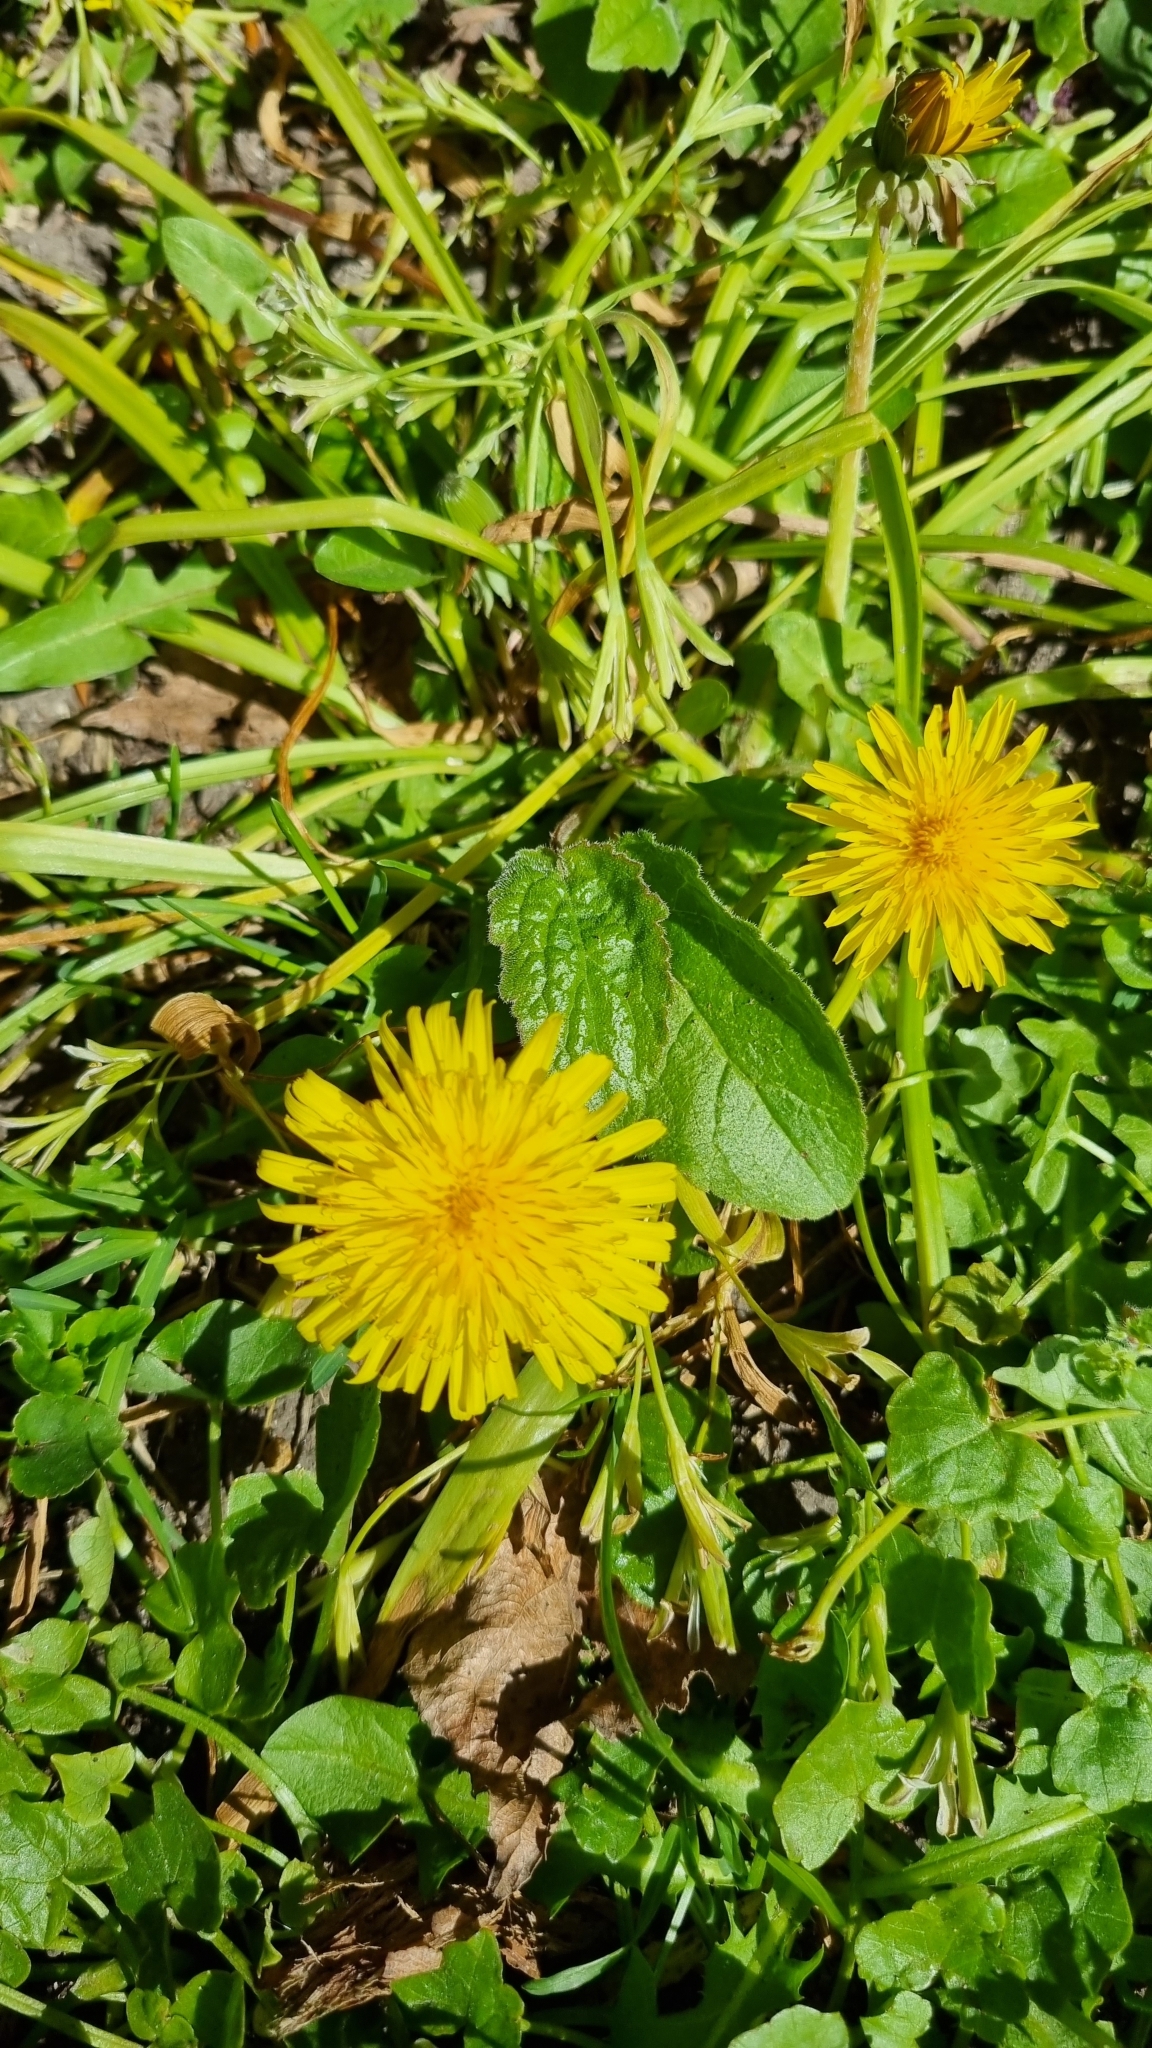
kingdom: Plantae
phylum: Tracheophyta
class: Magnoliopsida
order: Asterales
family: Asteraceae
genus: Taraxacum
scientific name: Taraxacum officinale
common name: Common dandelion
